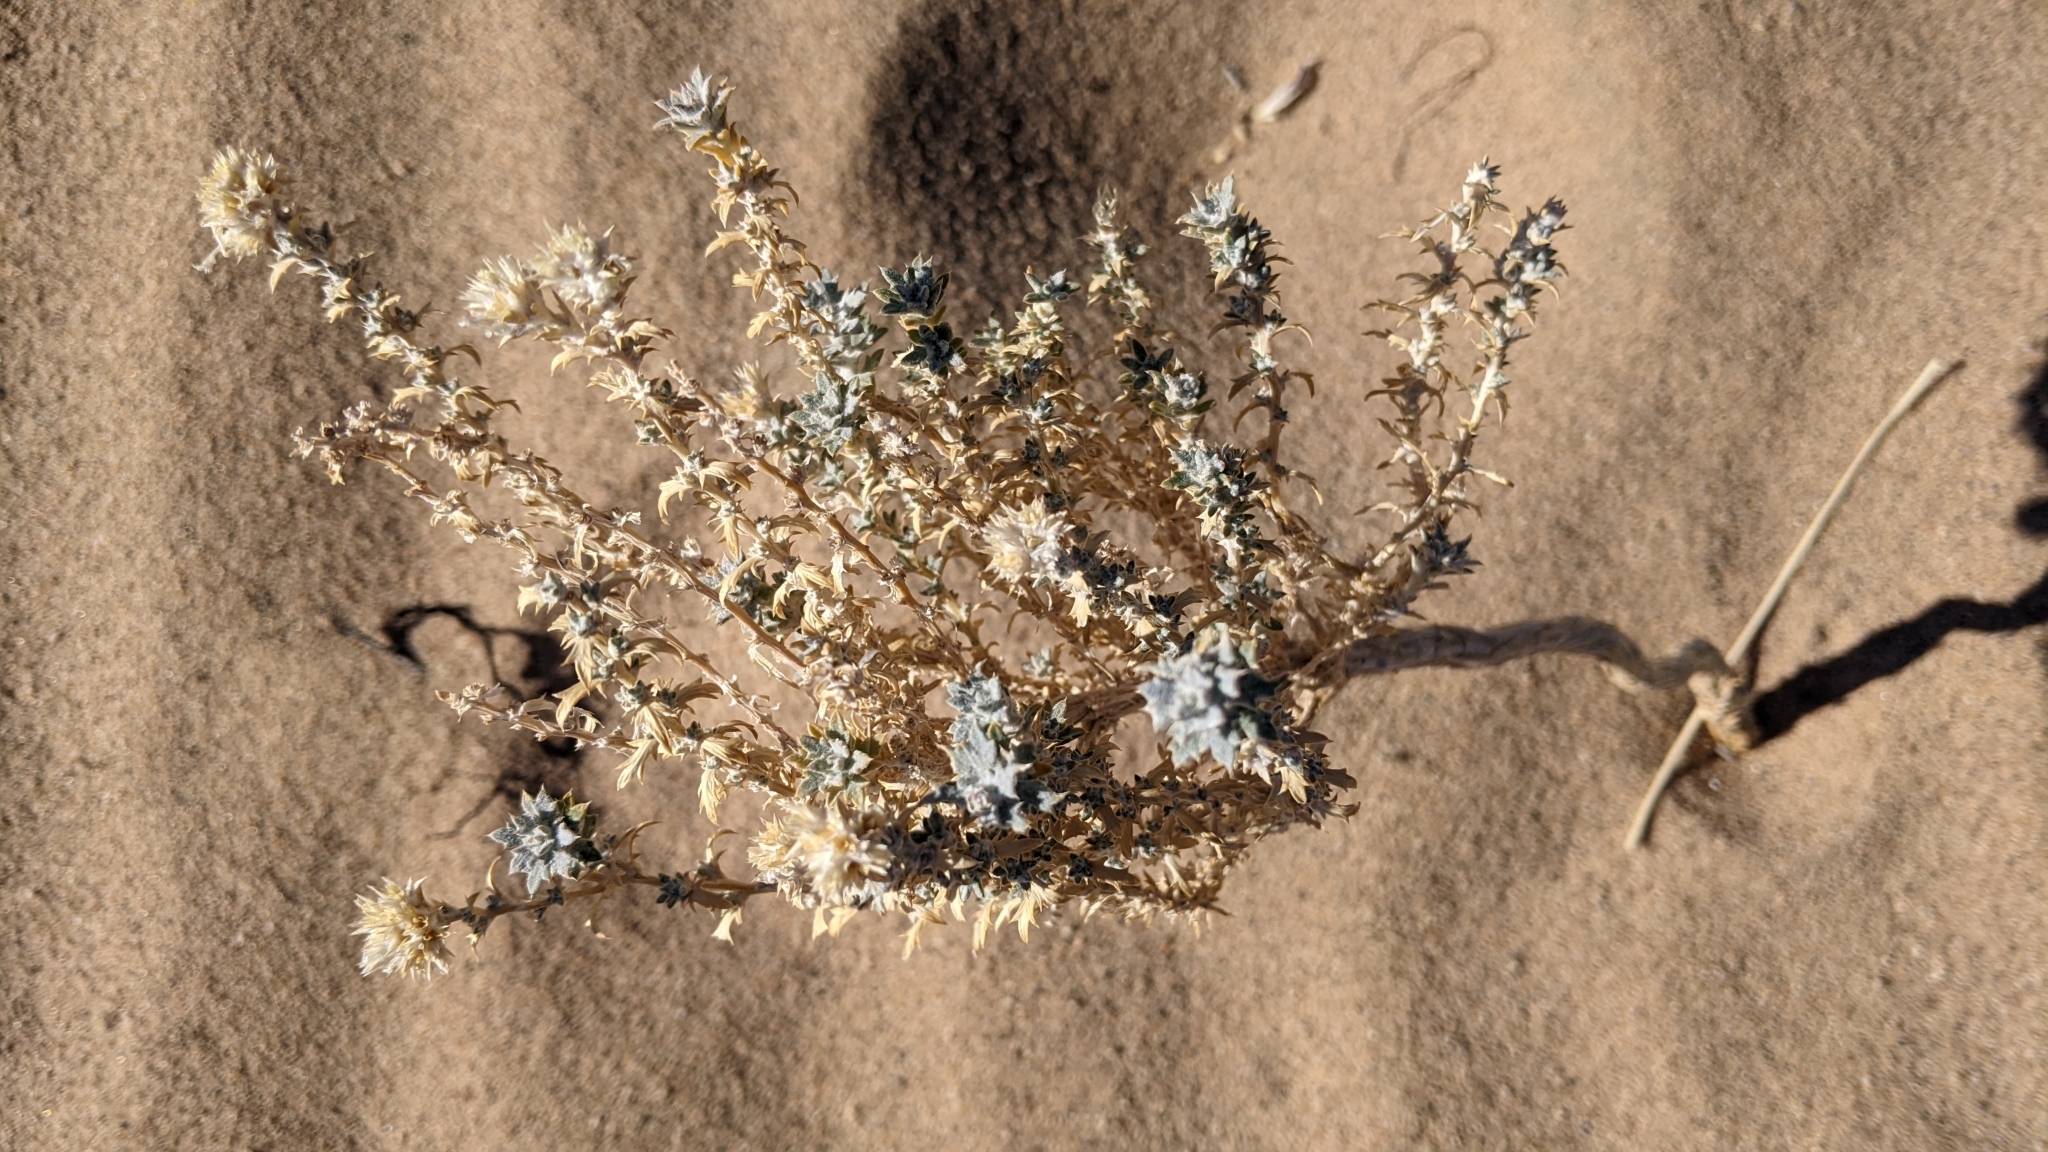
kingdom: Plantae
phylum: Tracheophyta
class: Magnoliopsida
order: Ericales
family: Polemoniaceae
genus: Eriastrum
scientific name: Eriastrum densifolium
